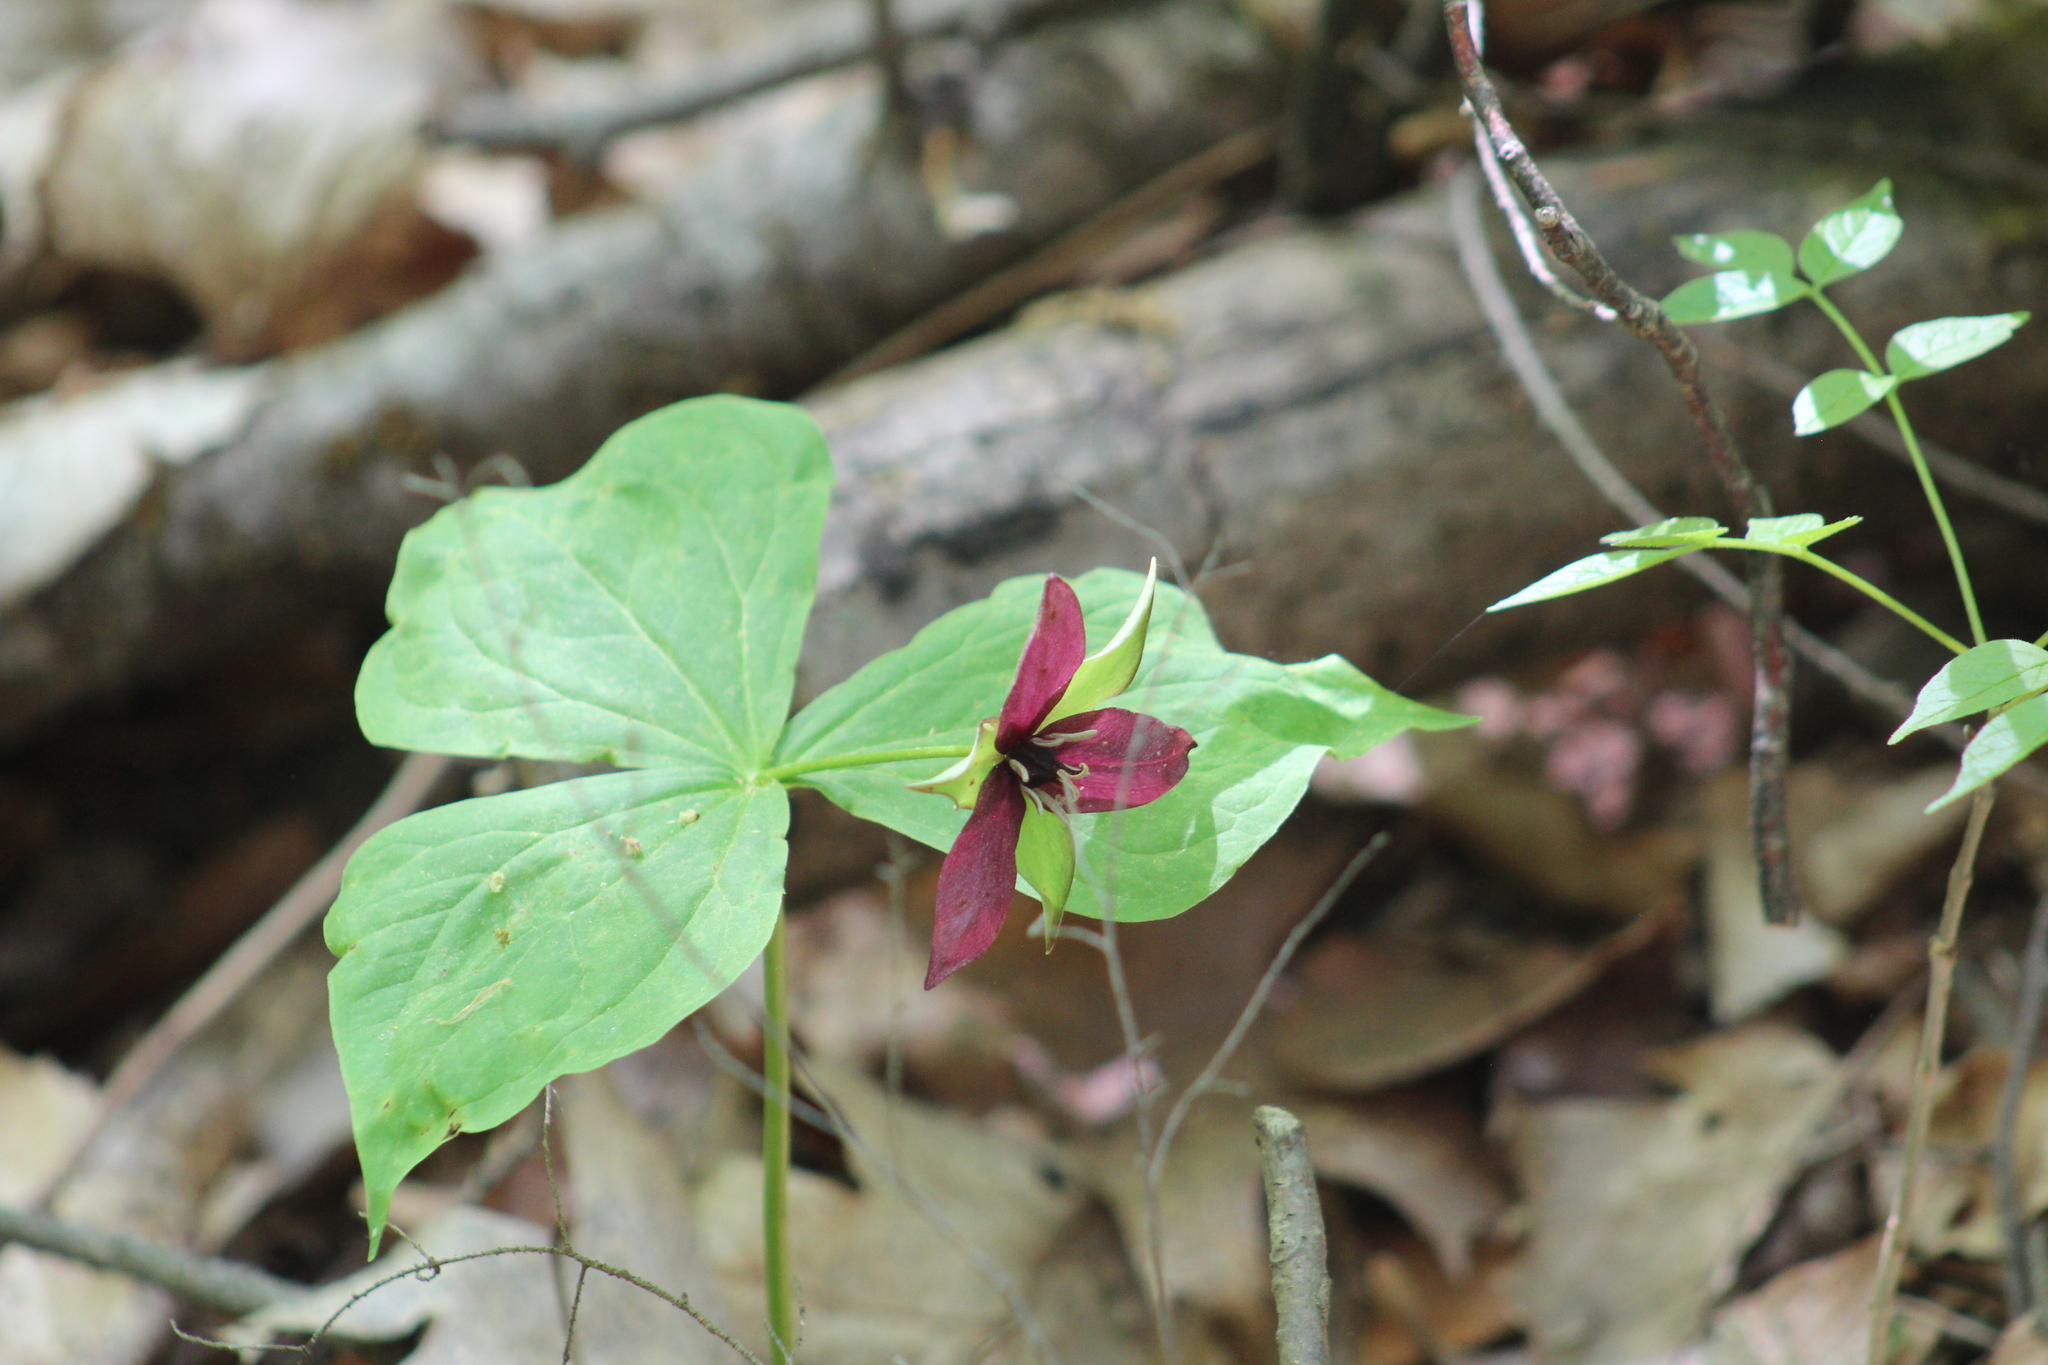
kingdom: Plantae
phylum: Tracheophyta
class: Liliopsida
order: Liliales
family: Melanthiaceae
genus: Trillium
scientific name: Trillium erectum
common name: Purple trillium
